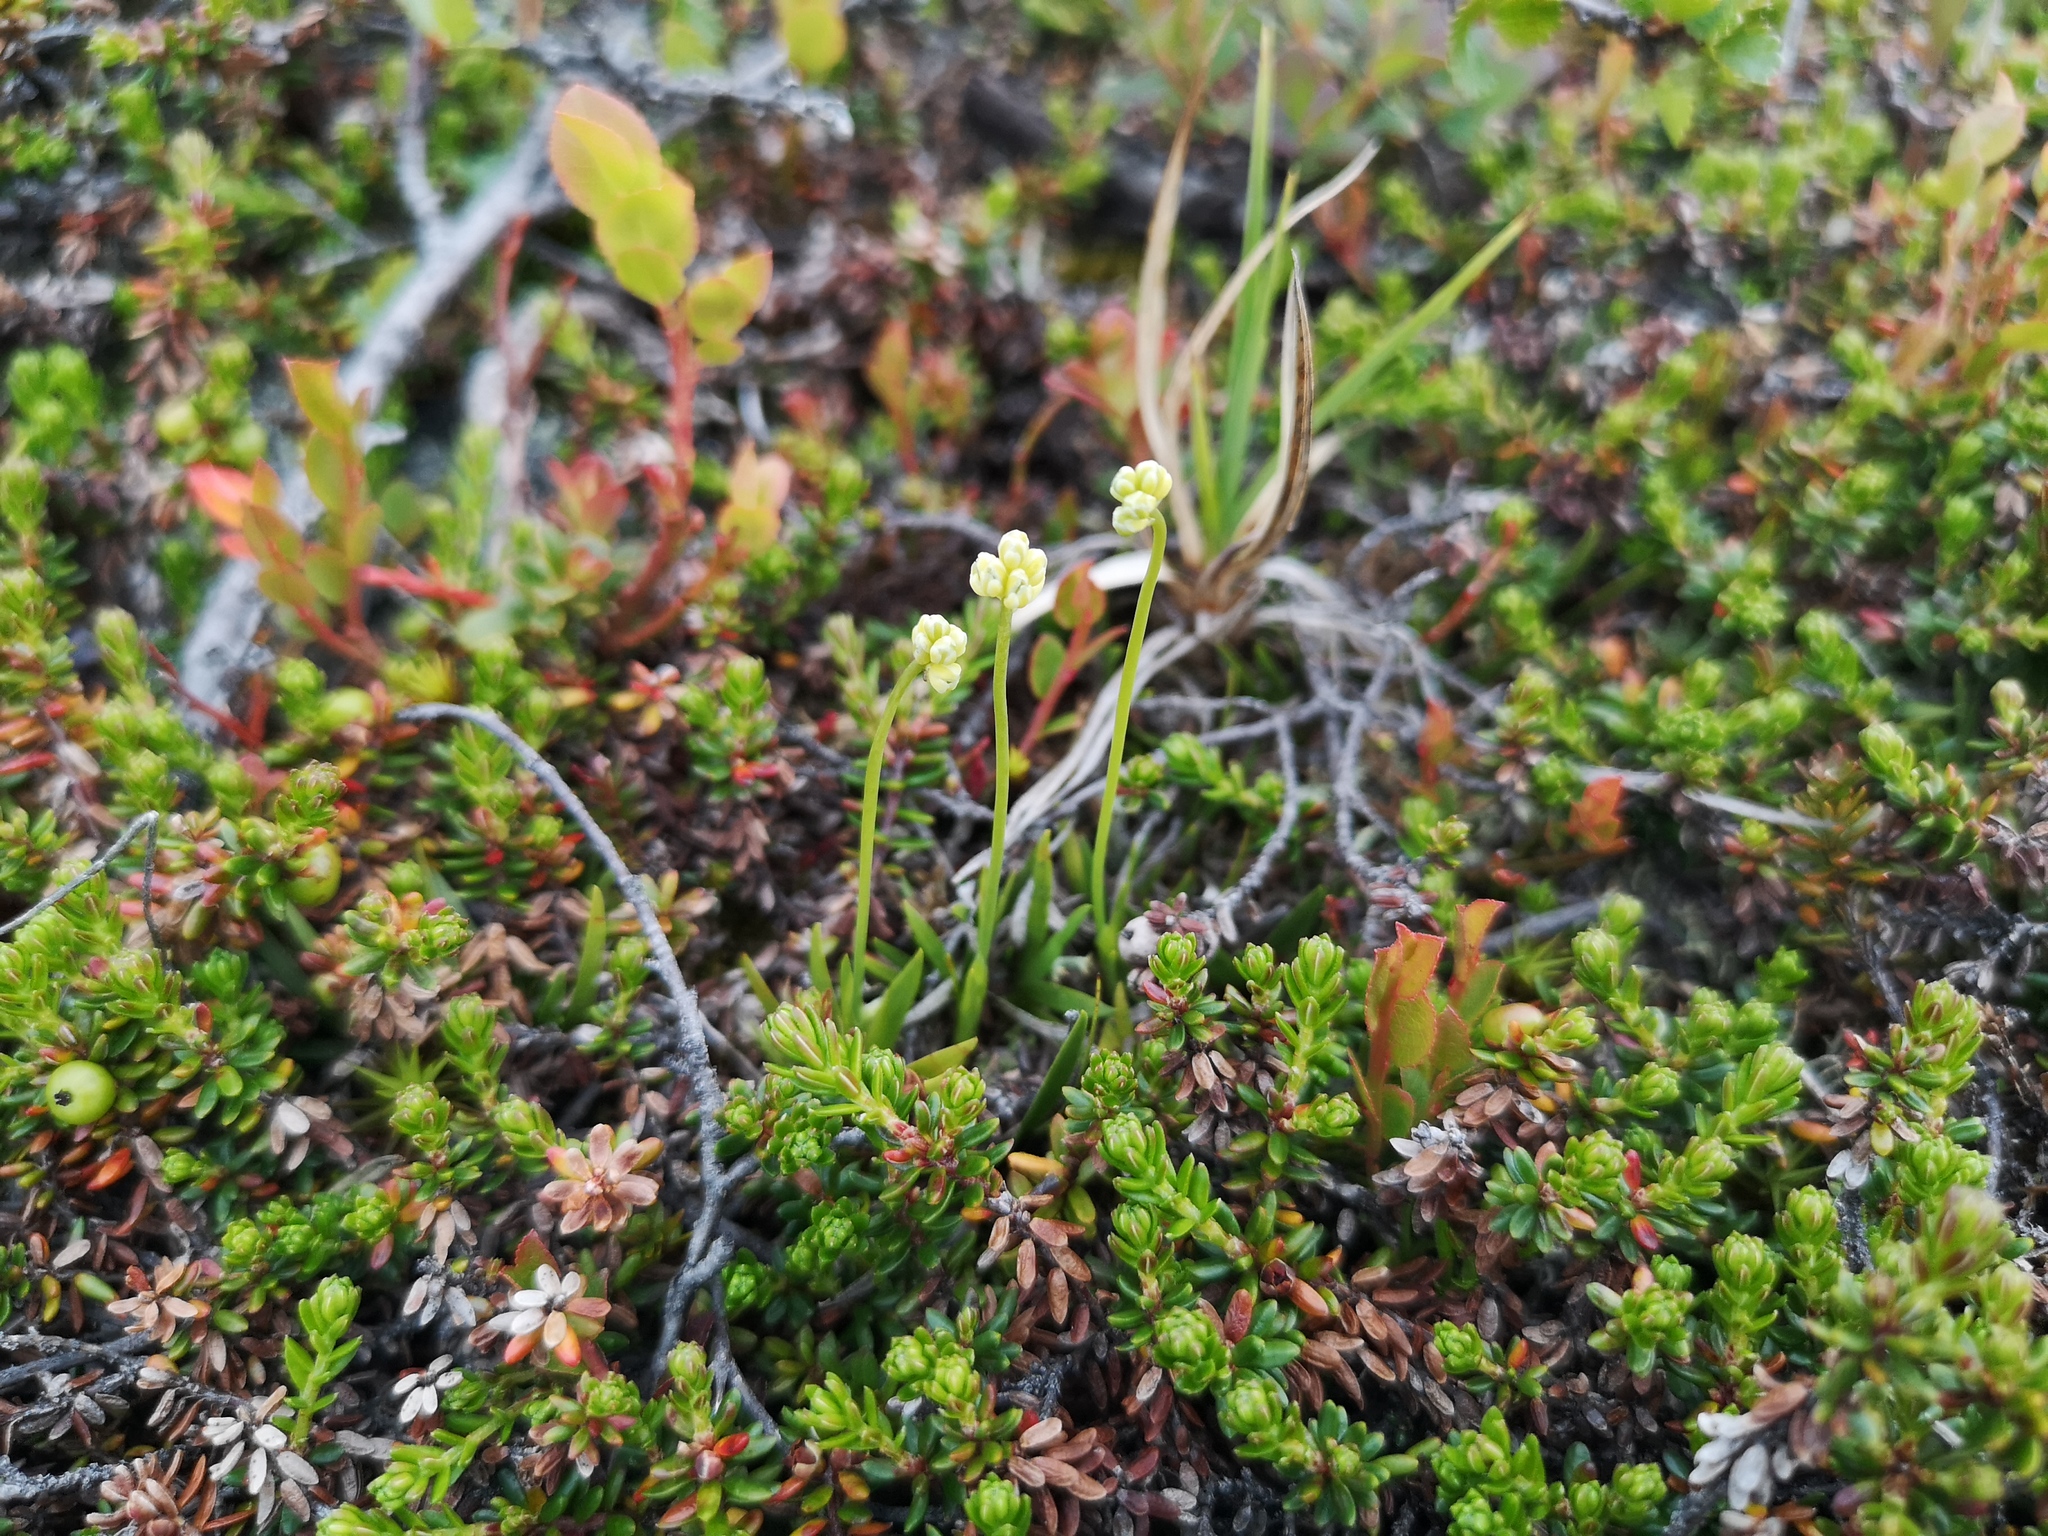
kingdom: Plantae
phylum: Tracheophyta
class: Liliopsida
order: Alismatales
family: Tofieldiaceae
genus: Tofieldia
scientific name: Tofieldia pusilla
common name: Scottish false asphodel
